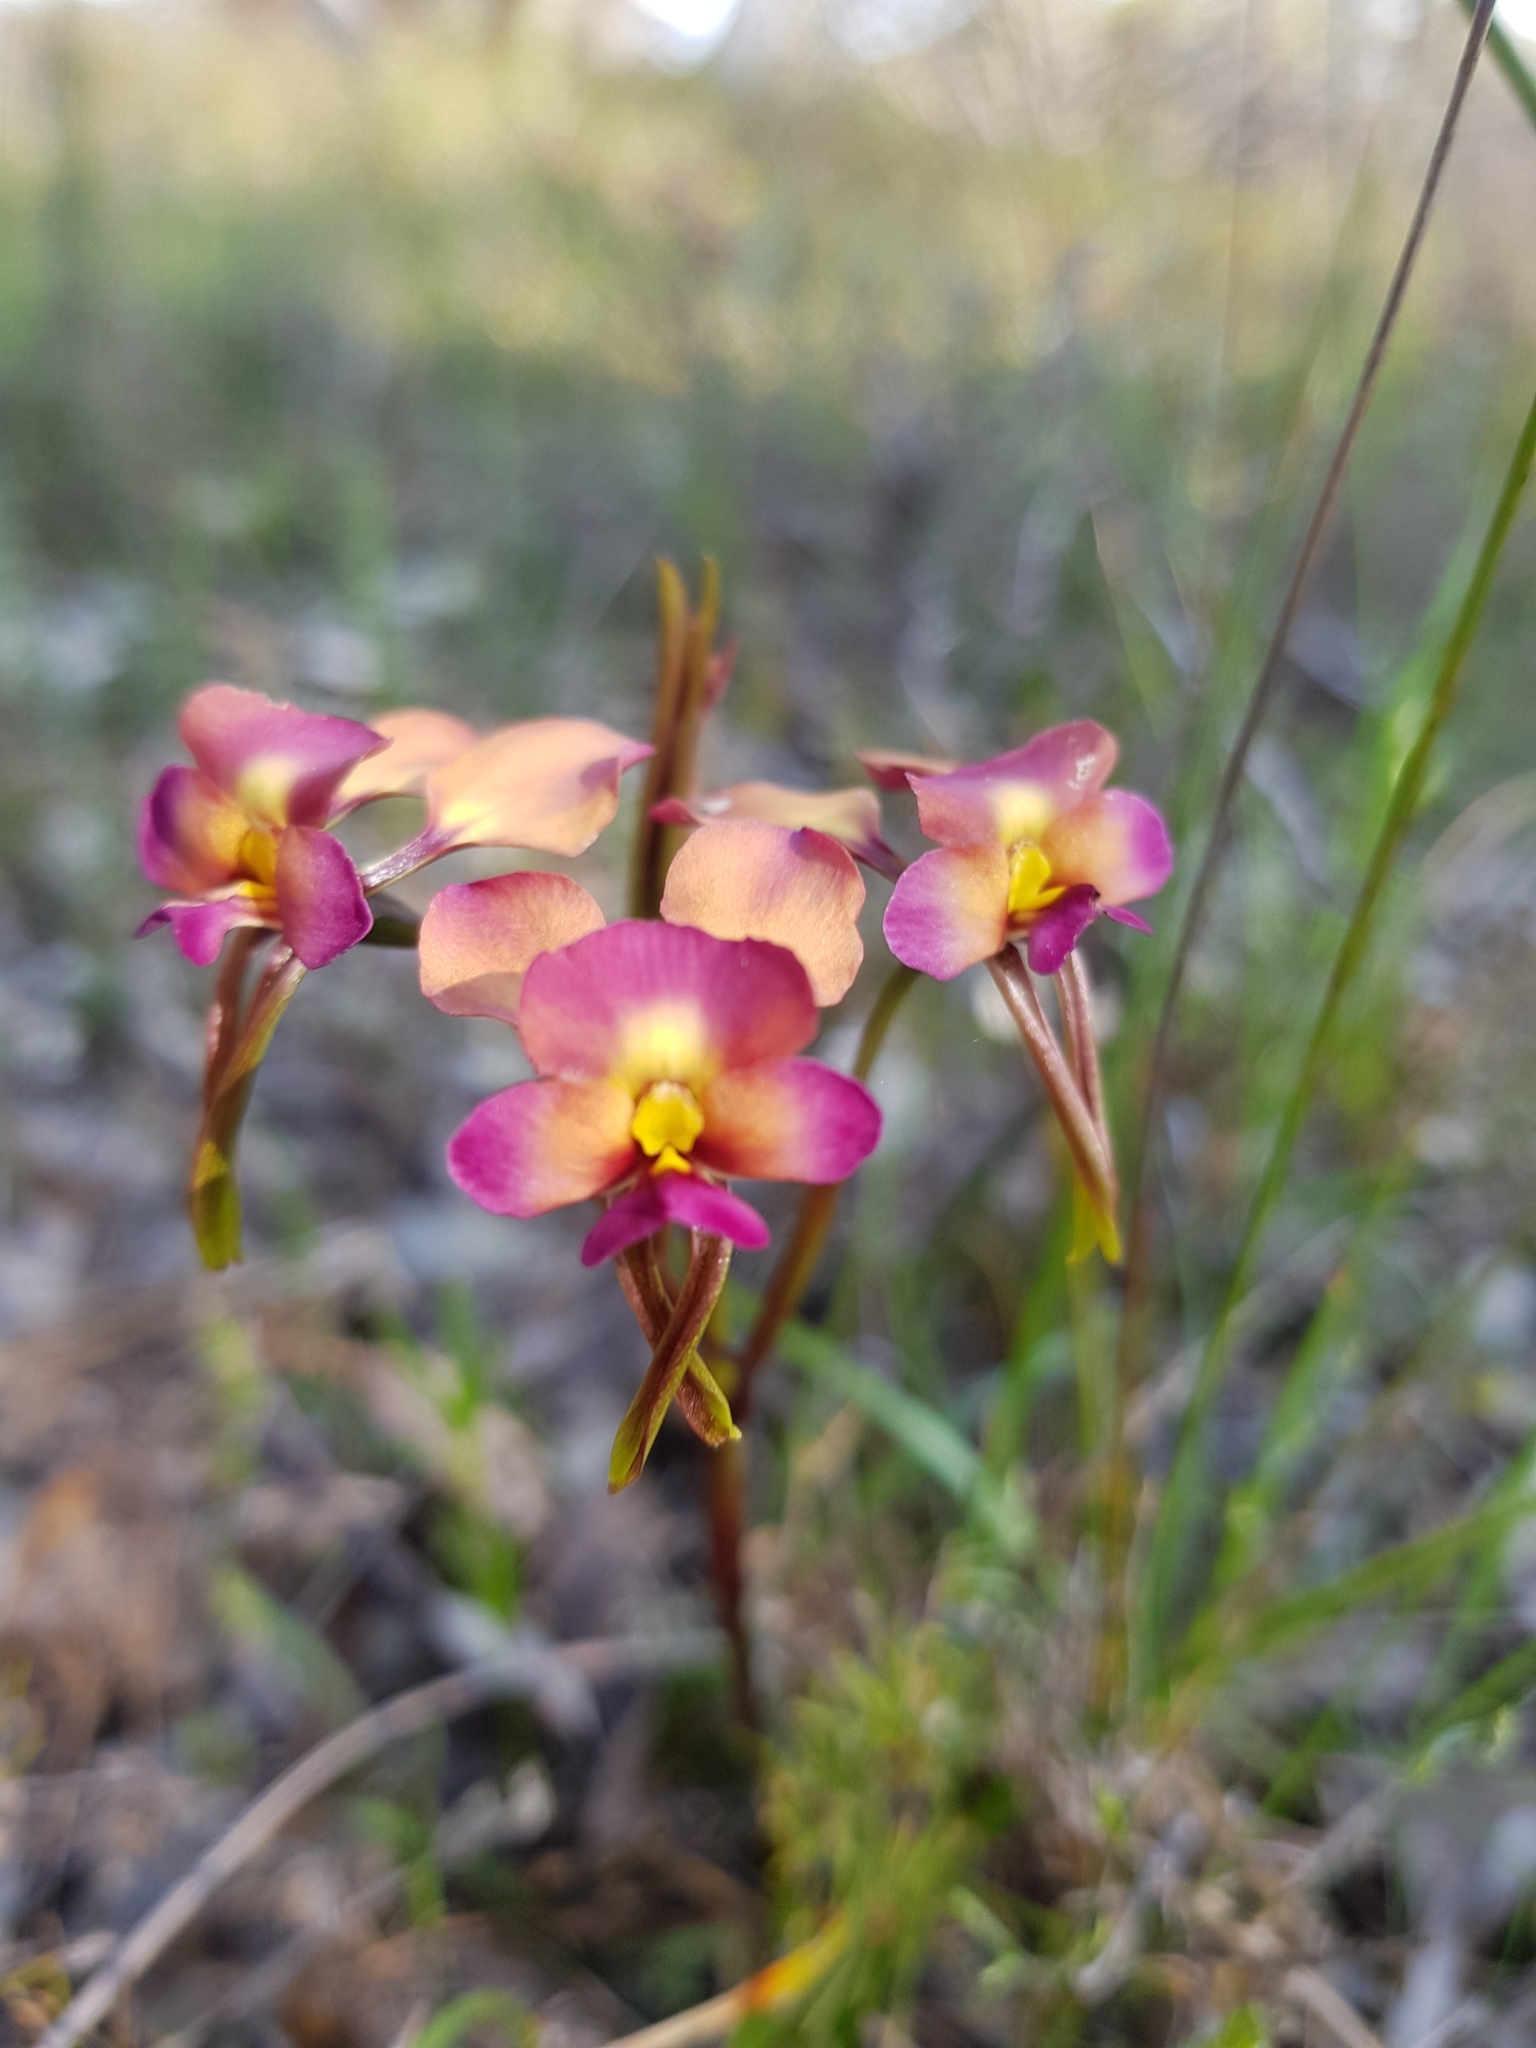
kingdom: Plantae
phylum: Tracheophyta
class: Liliopsida
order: Asparagales
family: Orchidaceae
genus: Diuris
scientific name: Diuris longifolia
